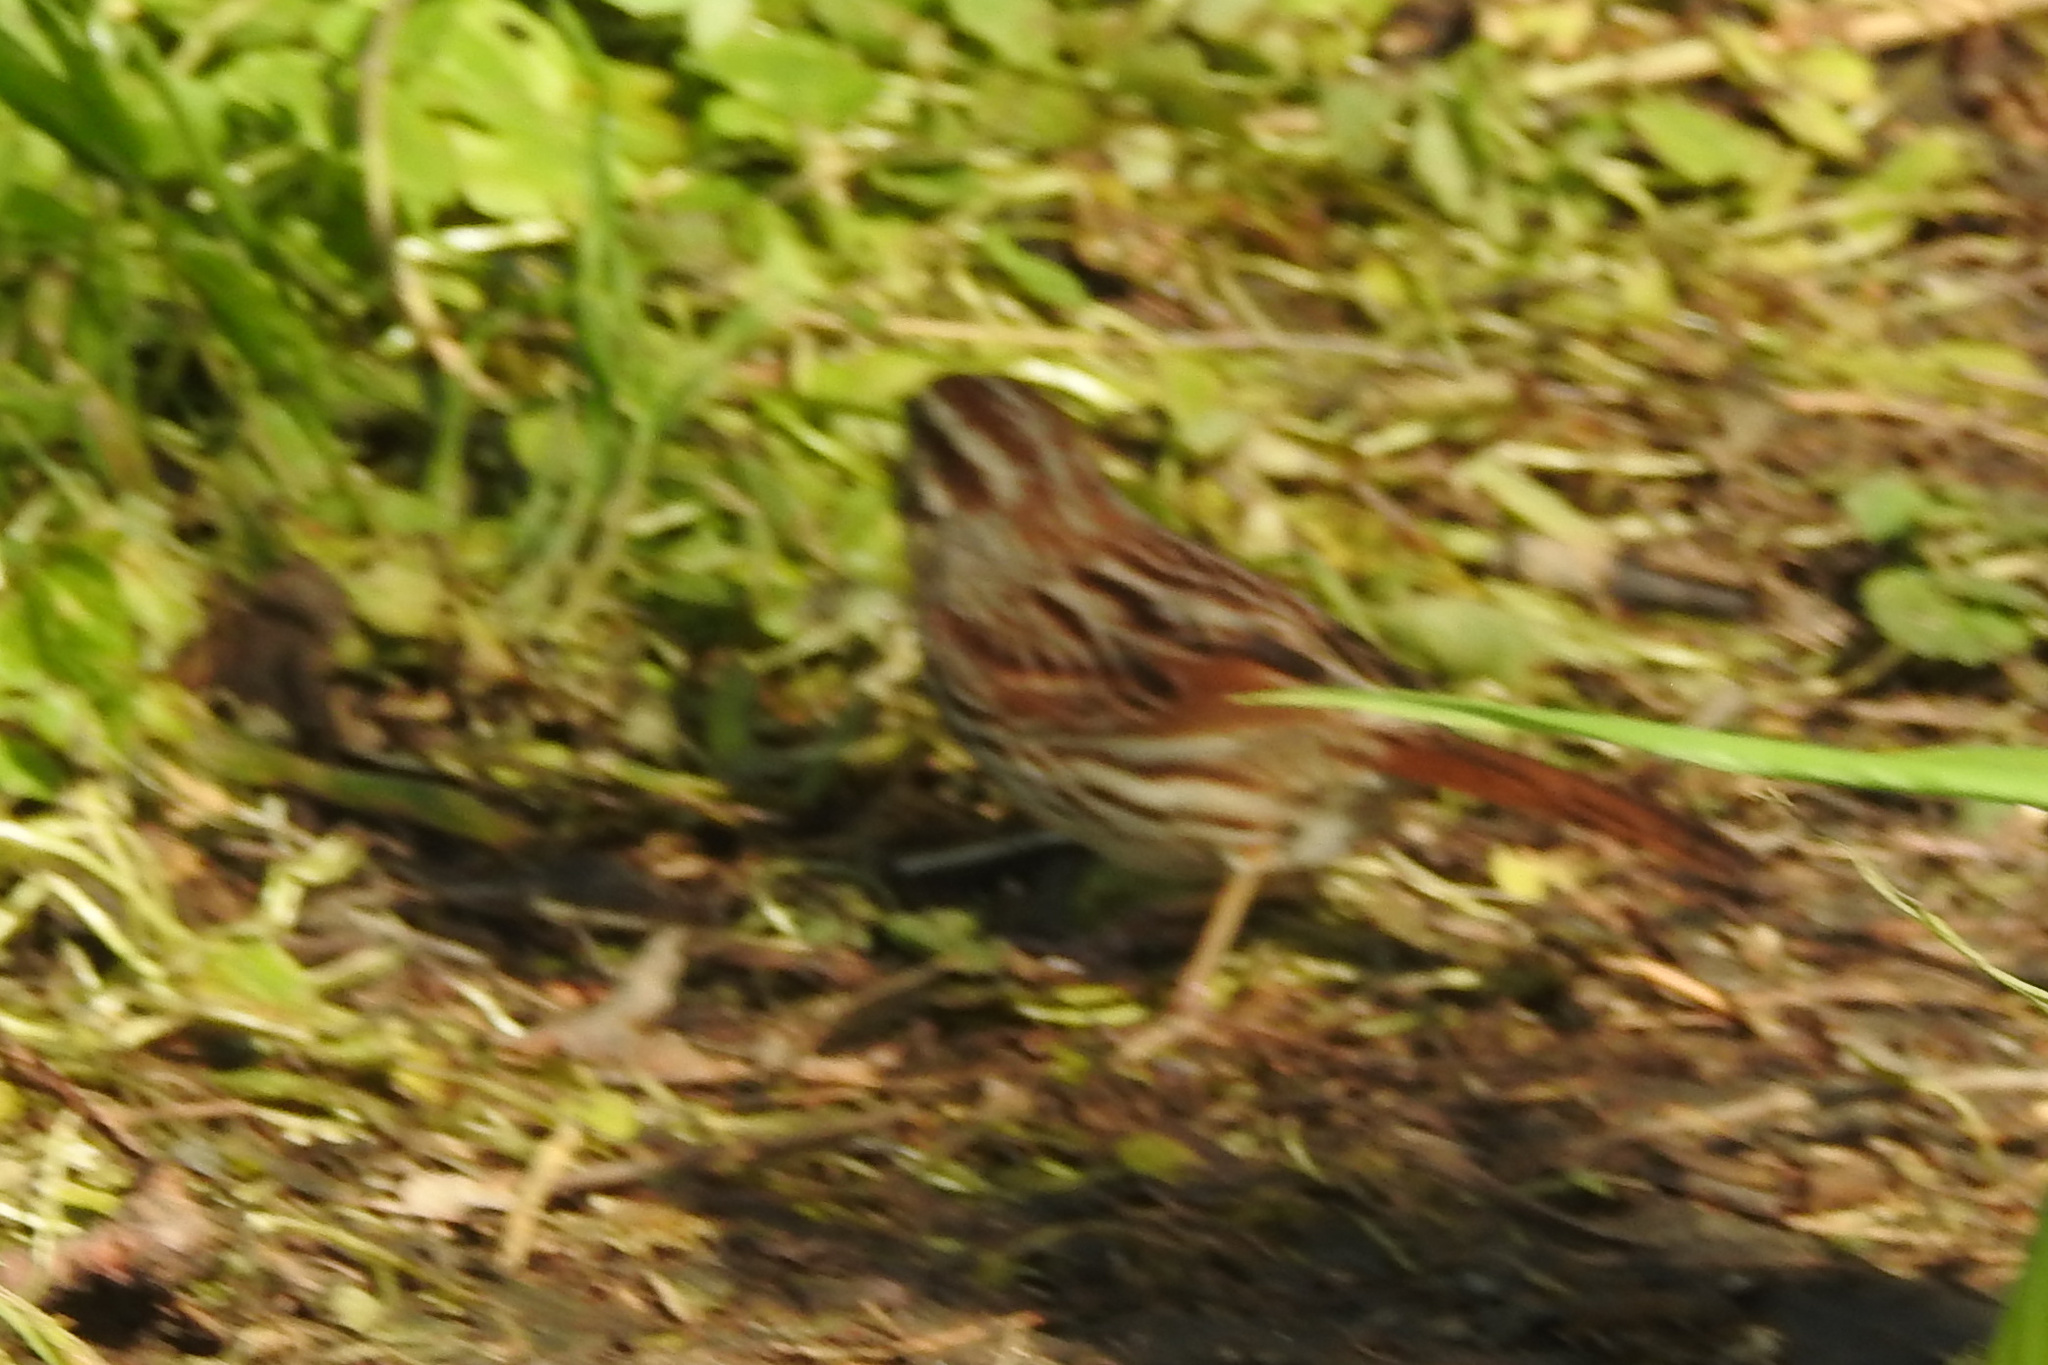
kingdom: Animalia
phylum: Chordata
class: Aves
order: Passeriformes
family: Passerellidae
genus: Melospiza
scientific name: Melospiza melodia
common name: Song sparrow
